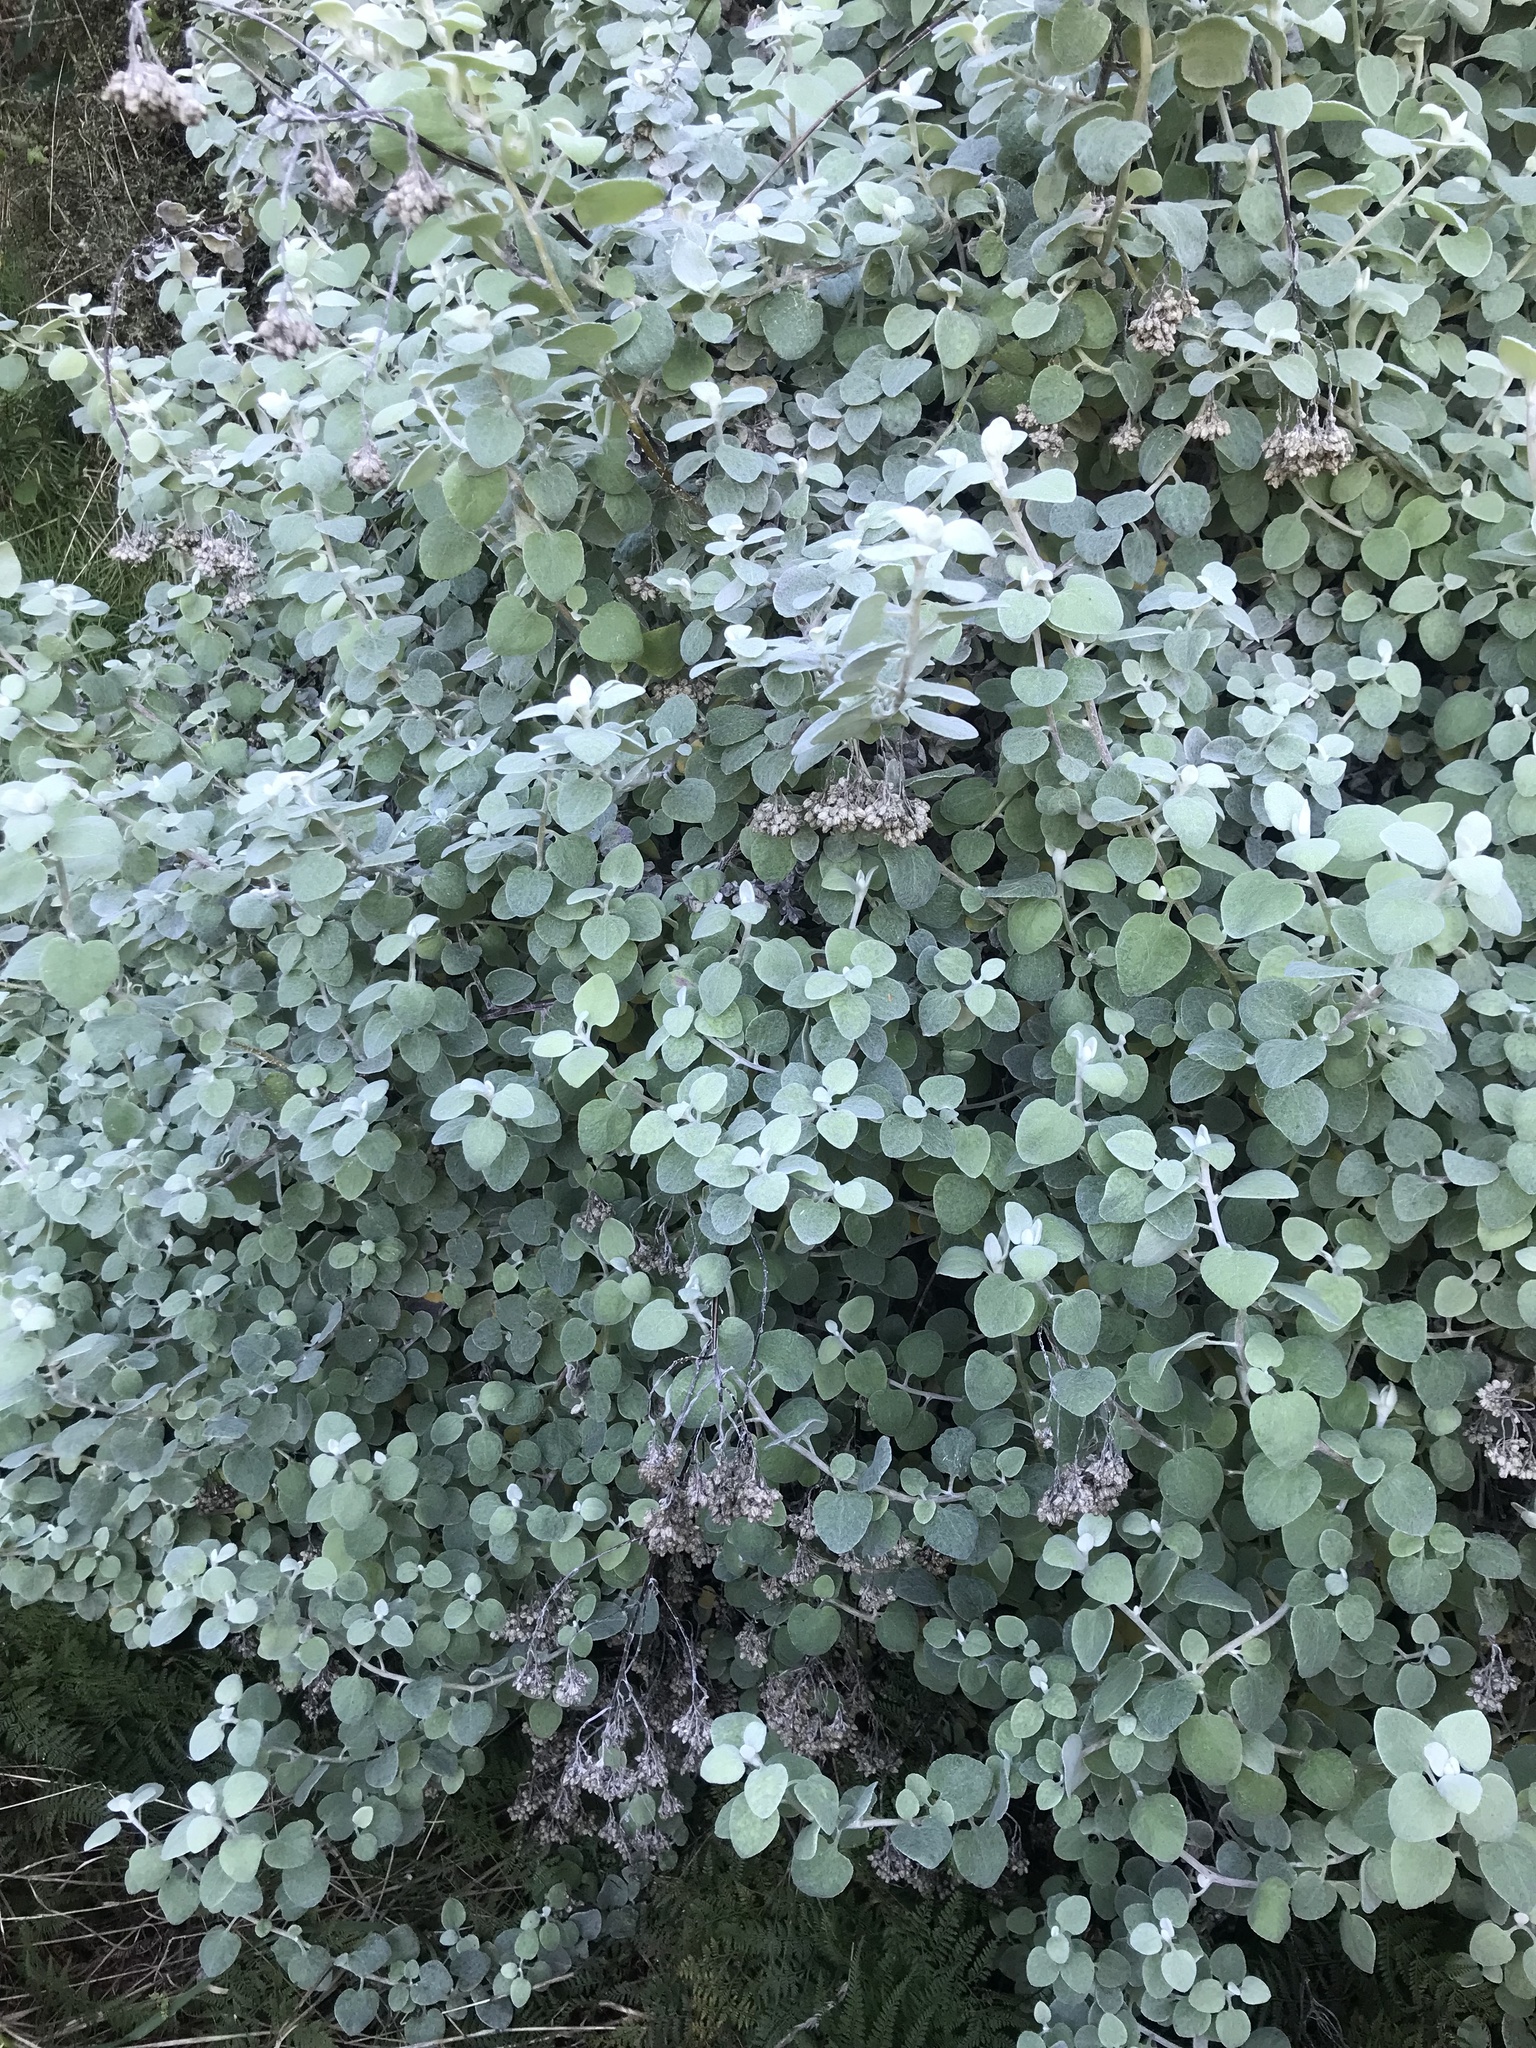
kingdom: Plantae
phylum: Tracheophyta
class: Magnoliopsida
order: Asterales
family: Asteraceae
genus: Helichrysum
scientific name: Helichrysum petiolare
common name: Licorice-plant
